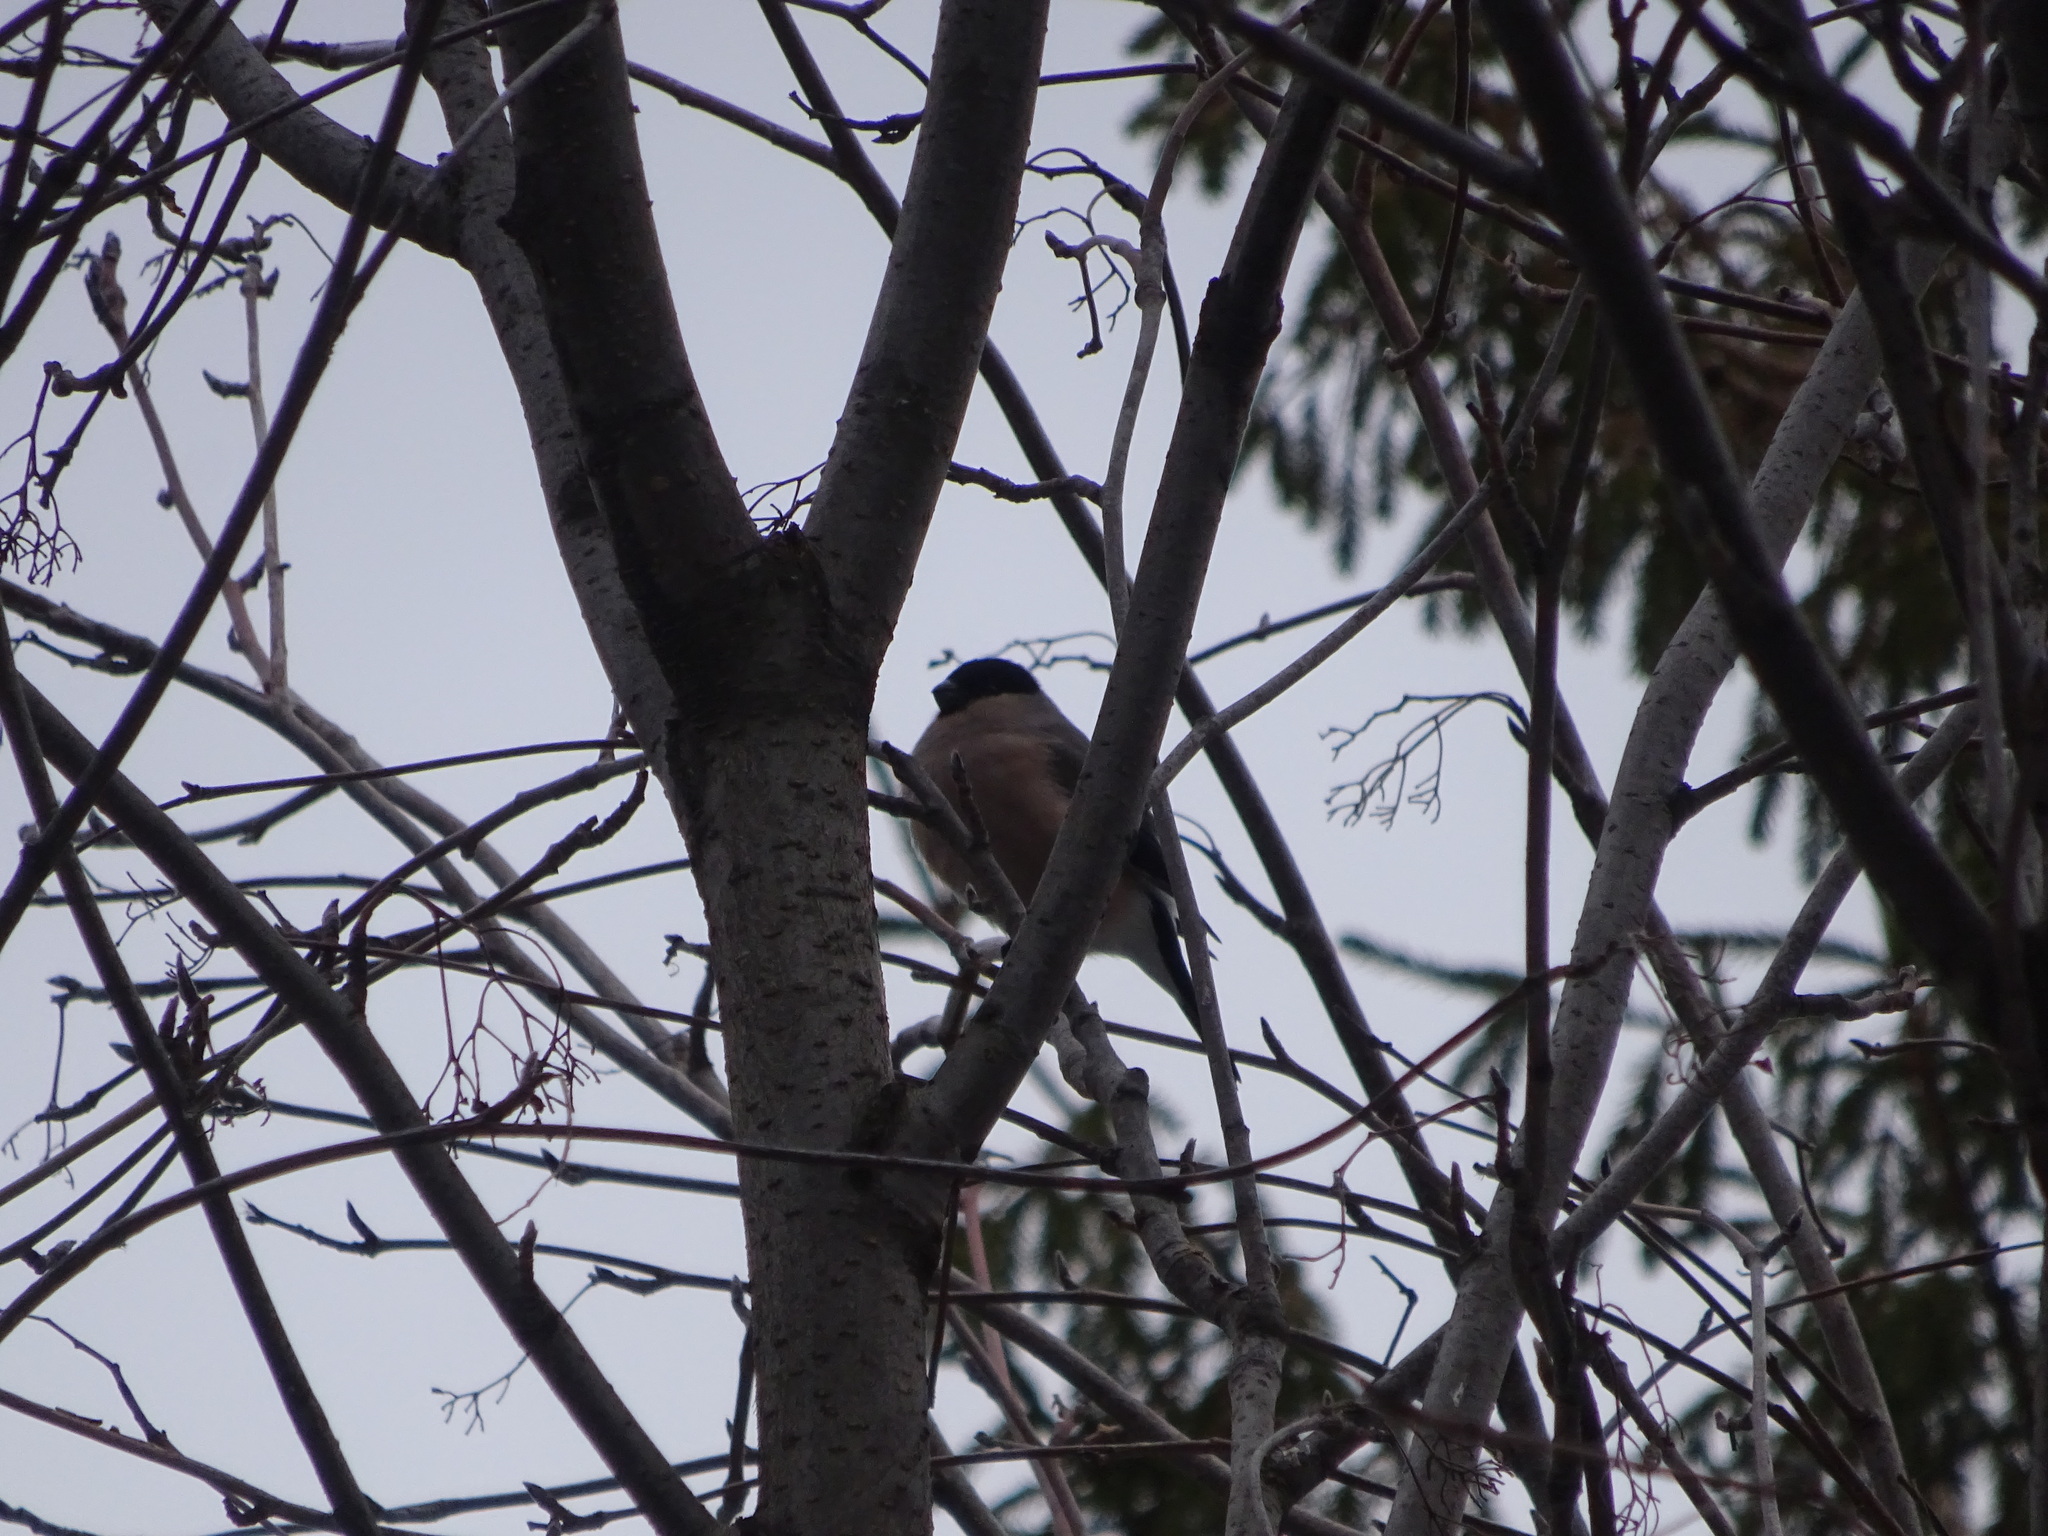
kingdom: Animalia
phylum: Chordata
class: Aves
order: Passeriformes
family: Fringillidae
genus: Pyrrhula
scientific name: Pyrrhula pyrrhula
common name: Eurasian bullfinch
